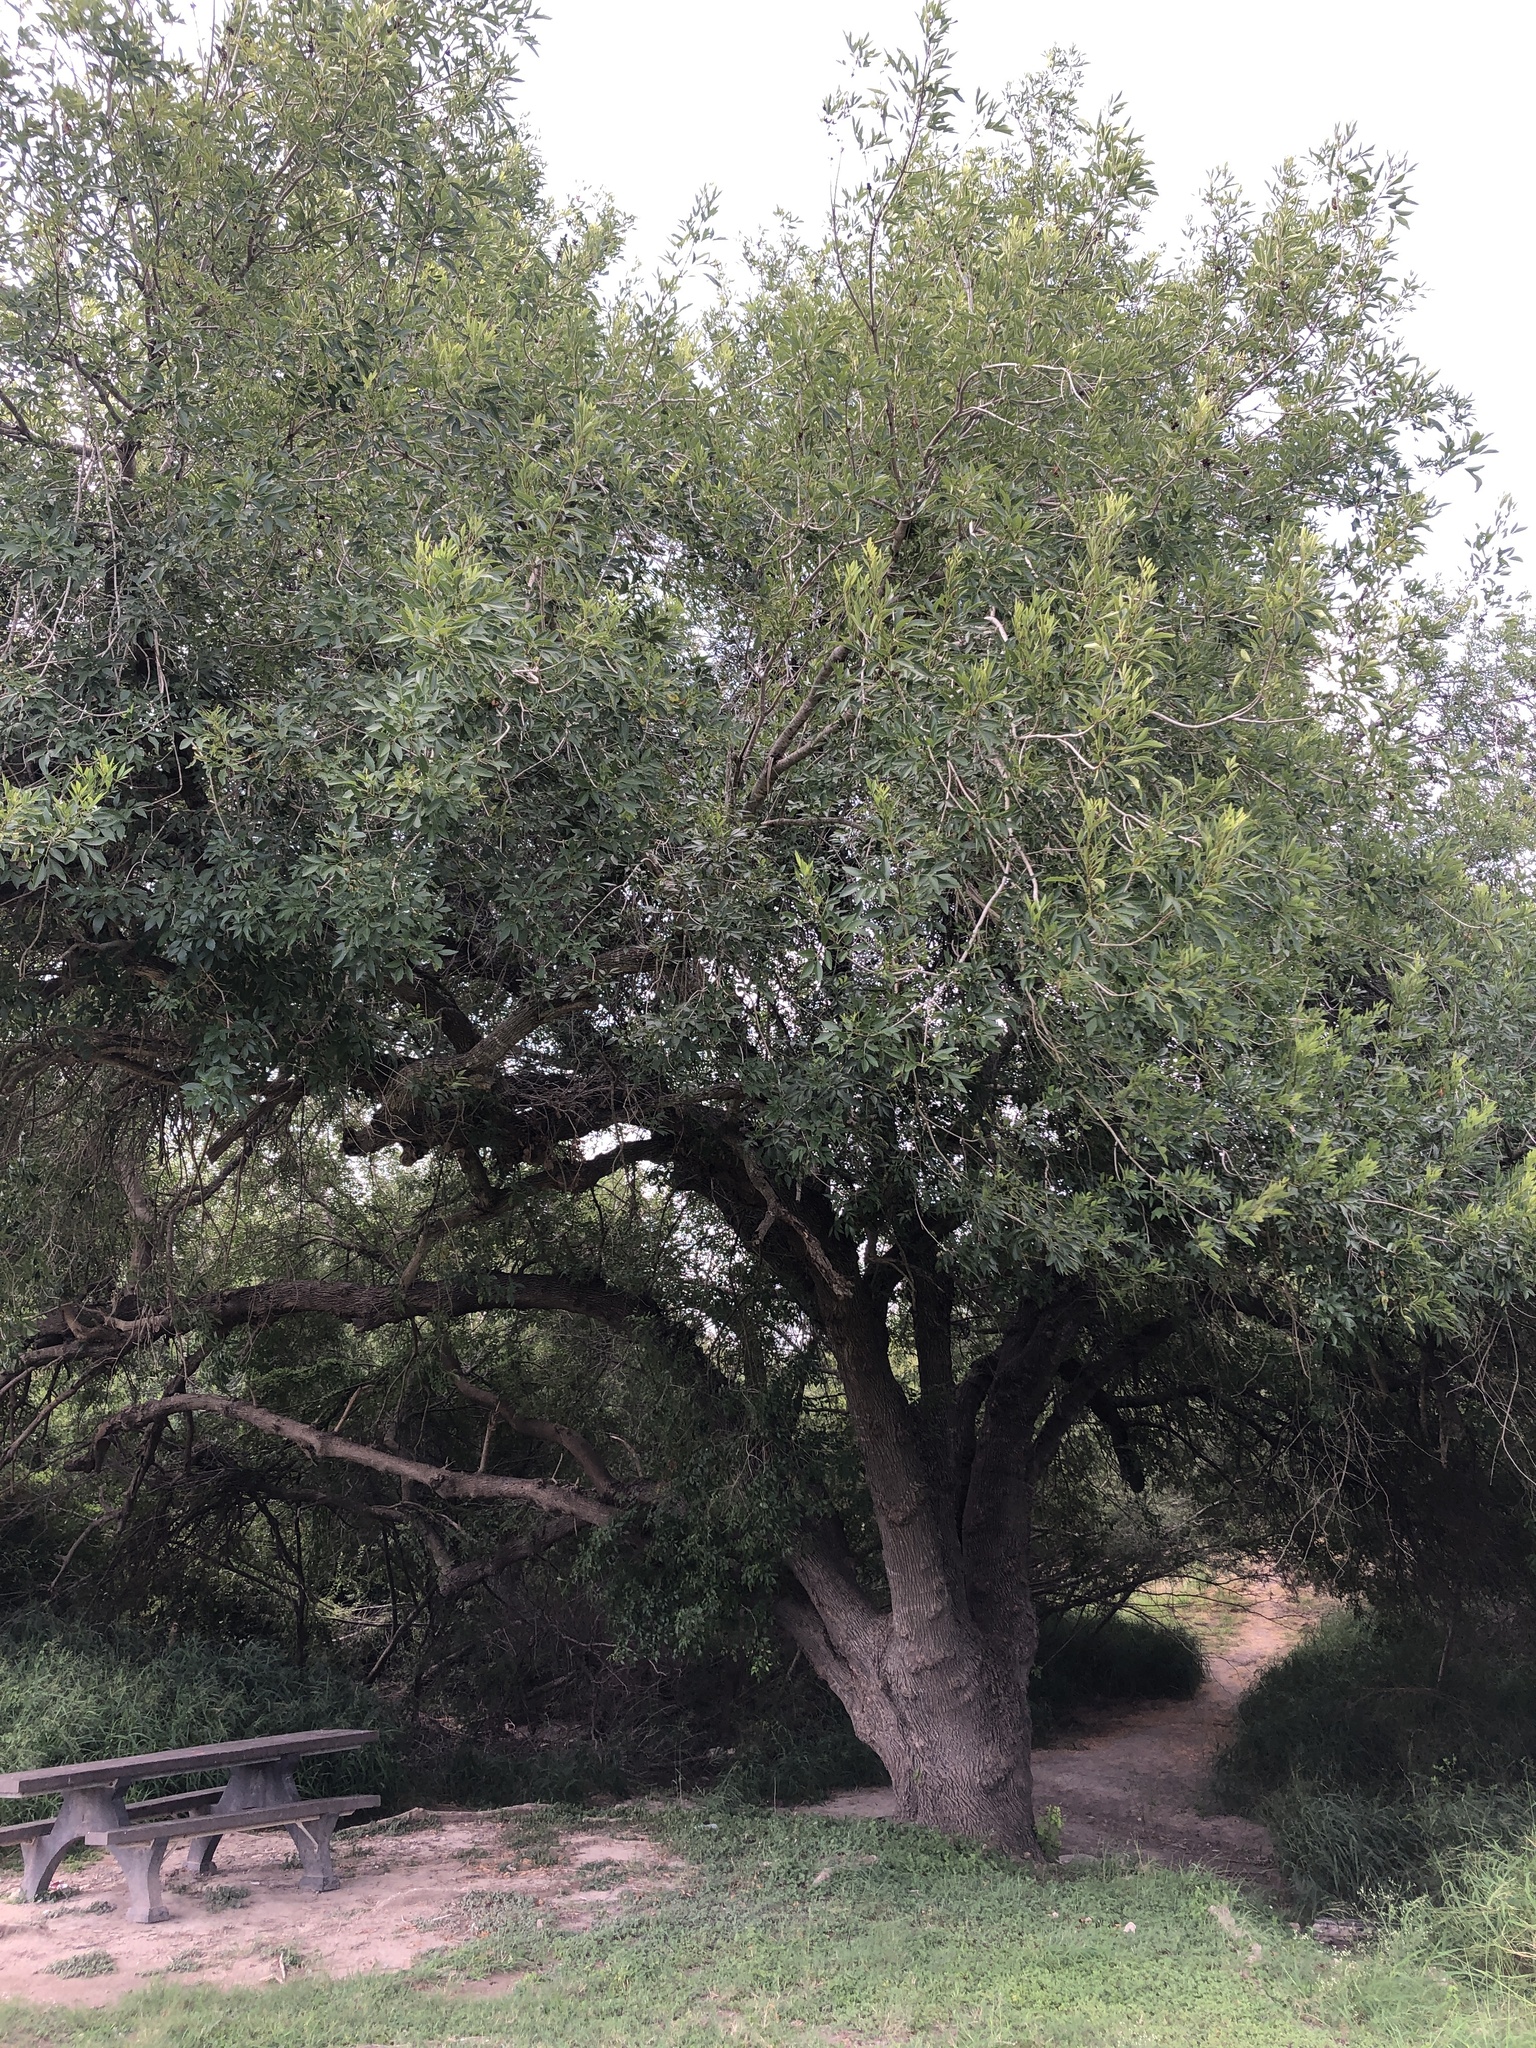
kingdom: Plantae
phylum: Tracheophyta
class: Magnoliopsida
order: Lamiales
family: Oleaceae
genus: Fraxinus
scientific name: Fraxinus berlandieriana
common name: Berlandier ash
